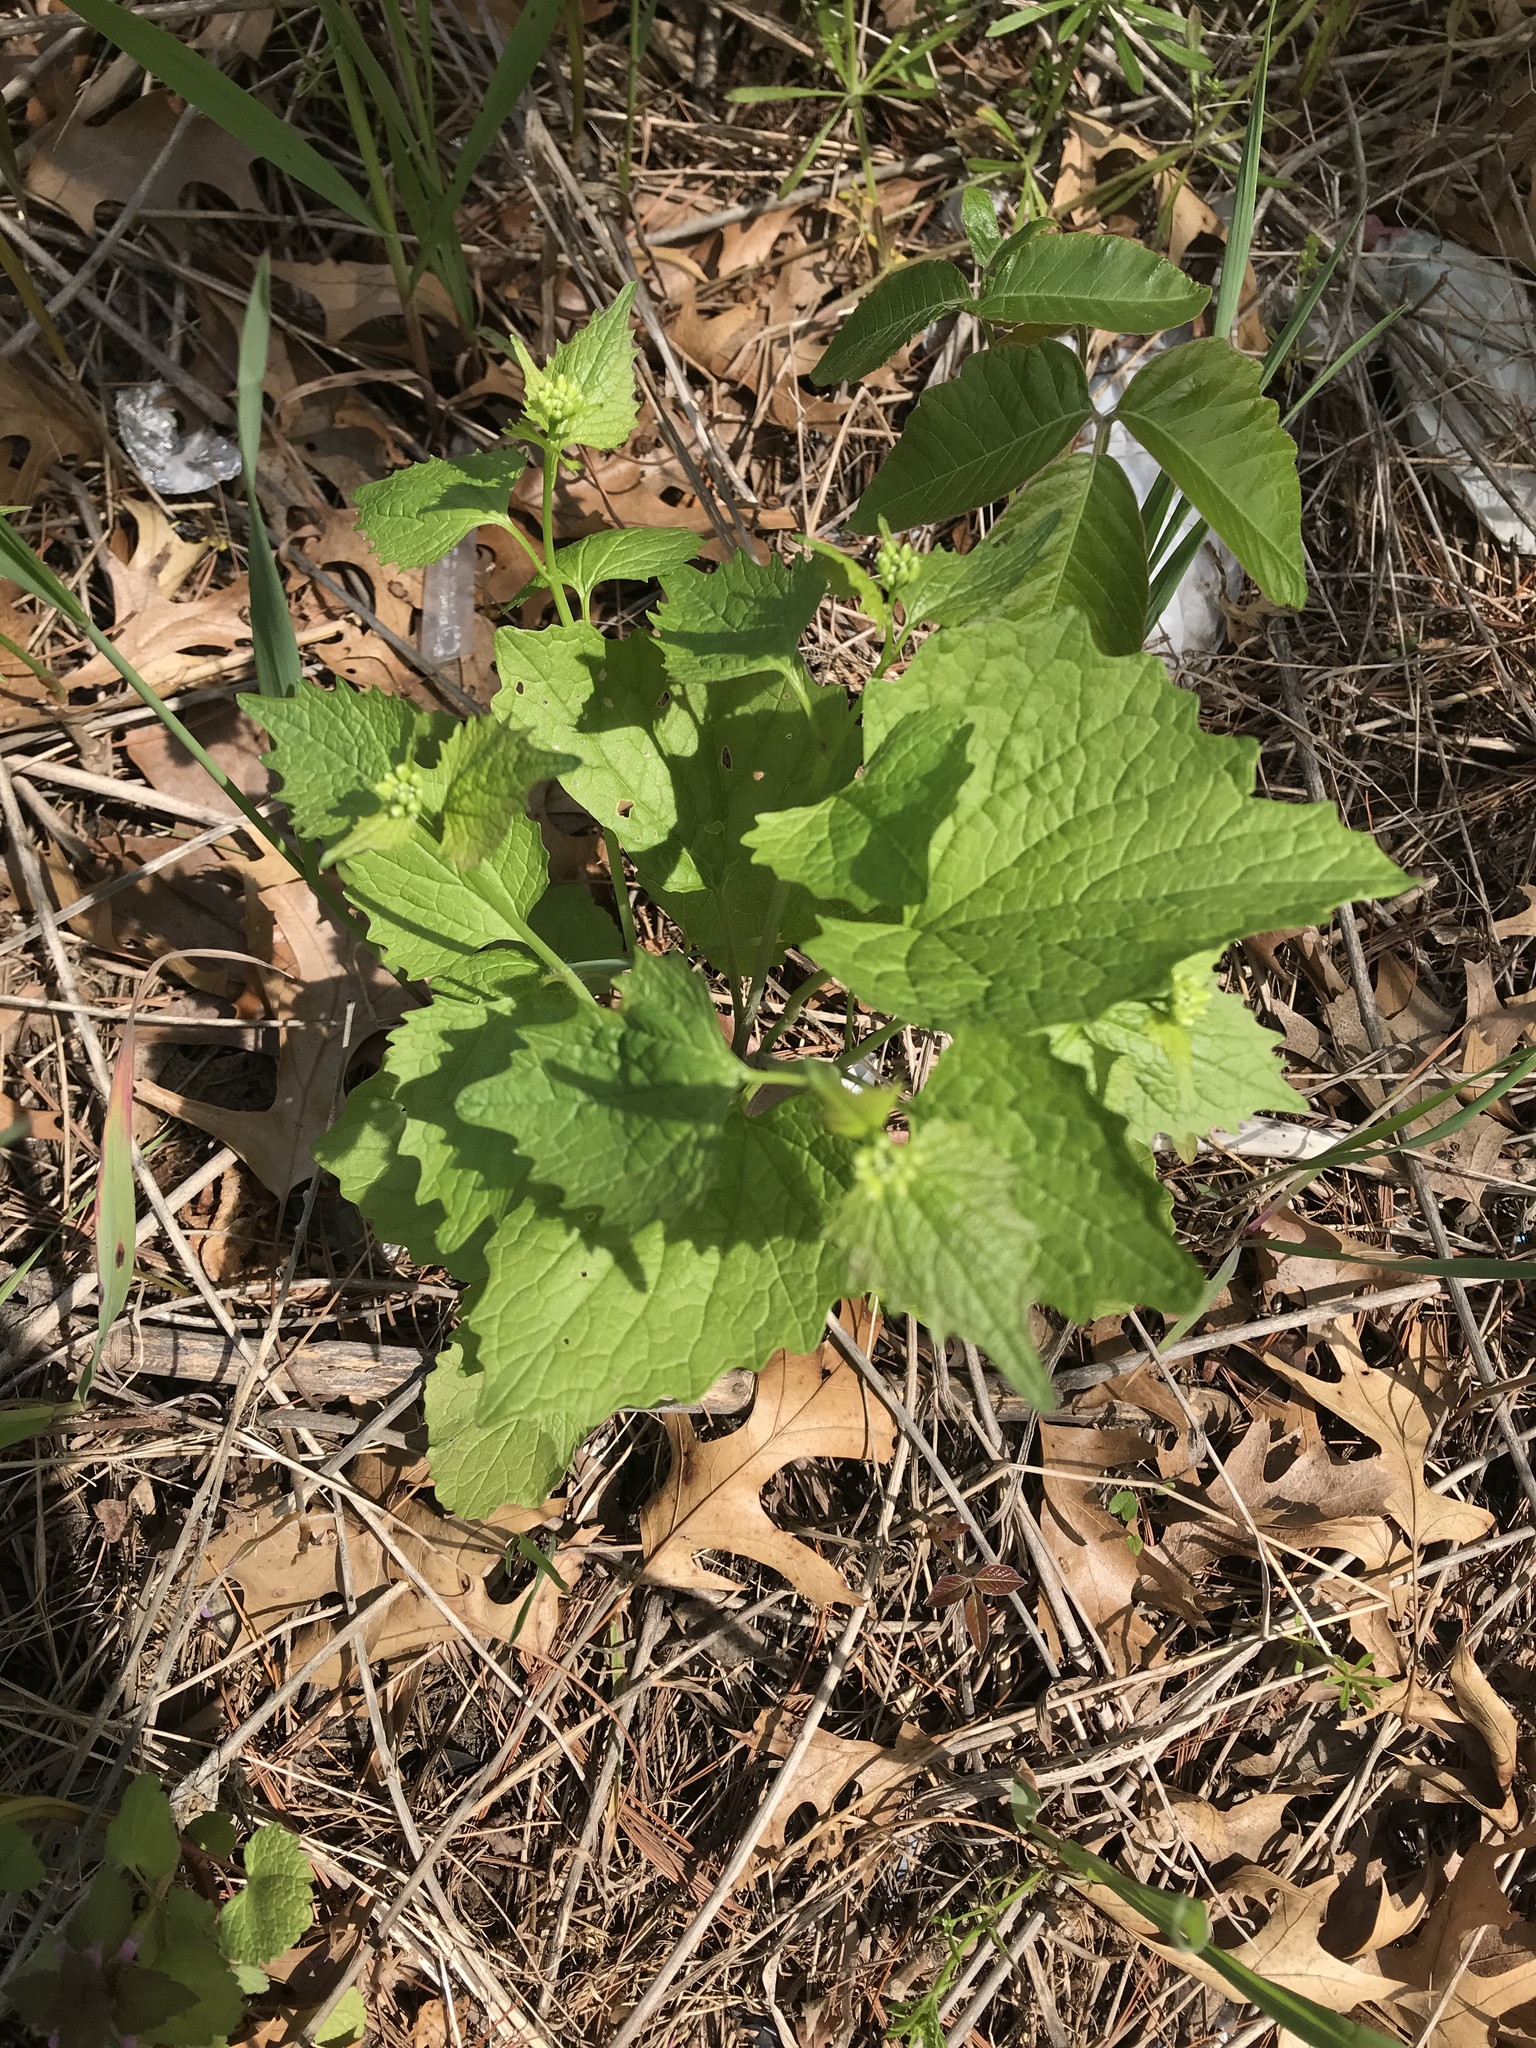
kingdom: Plantae
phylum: Tracheophyta
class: Magnoliopsida
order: Brassicales
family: Brassicaceae
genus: Alliaria
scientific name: Alliaria petiolata
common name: Garlic mustard
